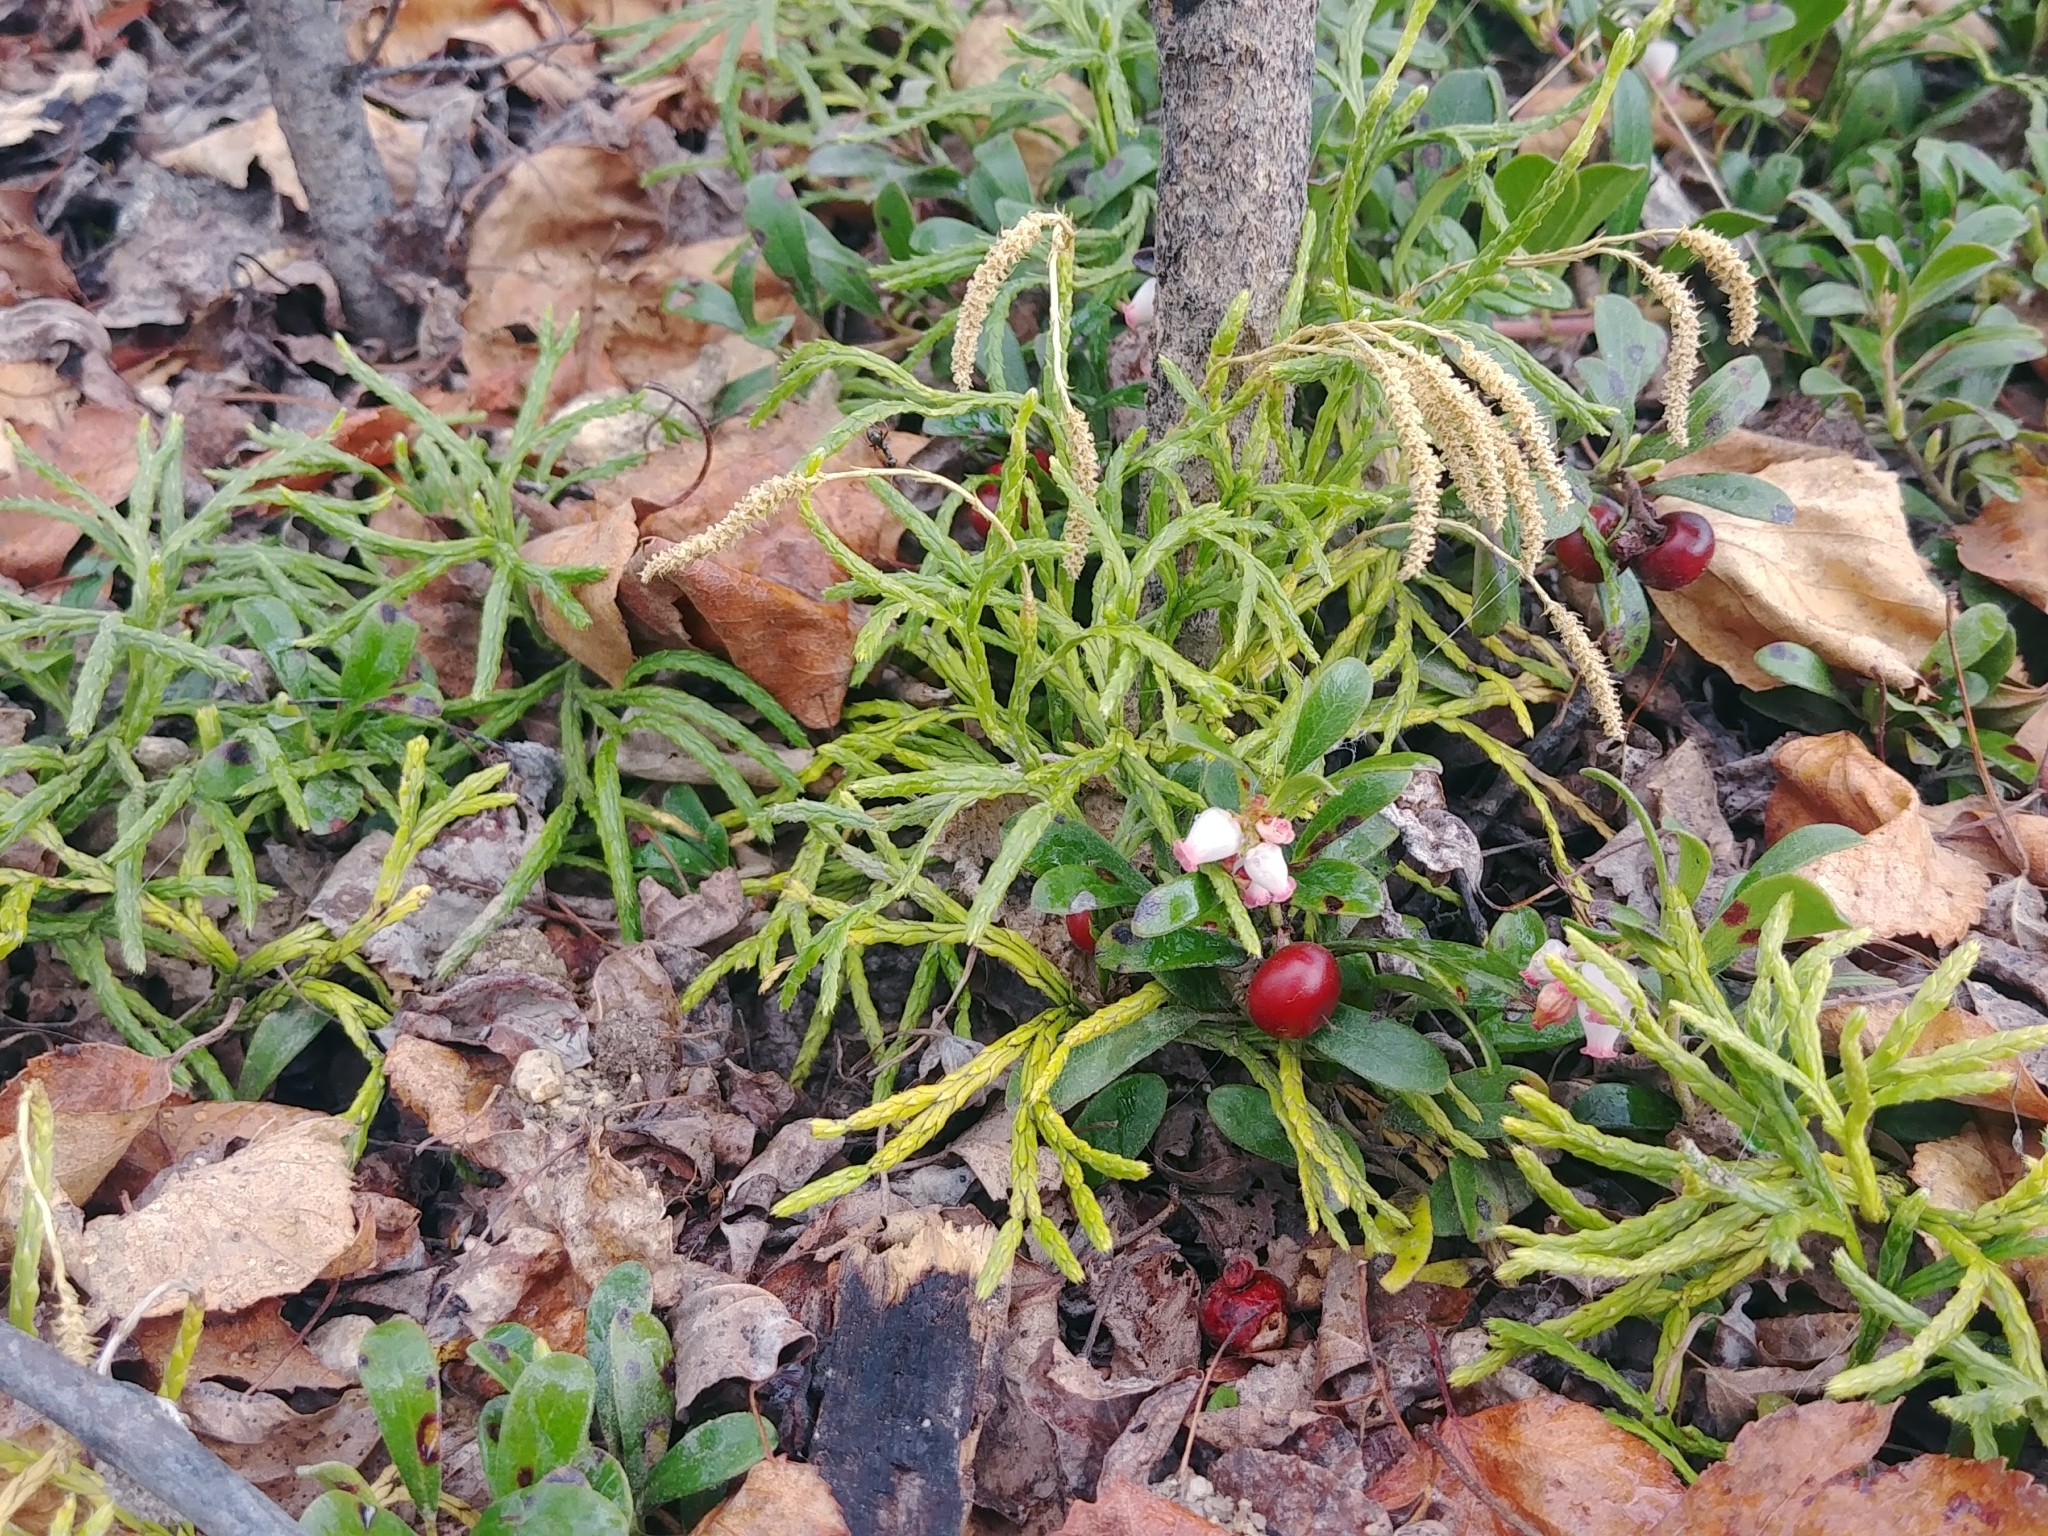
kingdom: Plantae
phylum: Tracheophyta
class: Lycopodiopsida
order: Lycopodiales
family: Lycopodiaceae
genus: Diphasiastrum
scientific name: Diphasiastrum complanatum
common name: Northern running-pine
